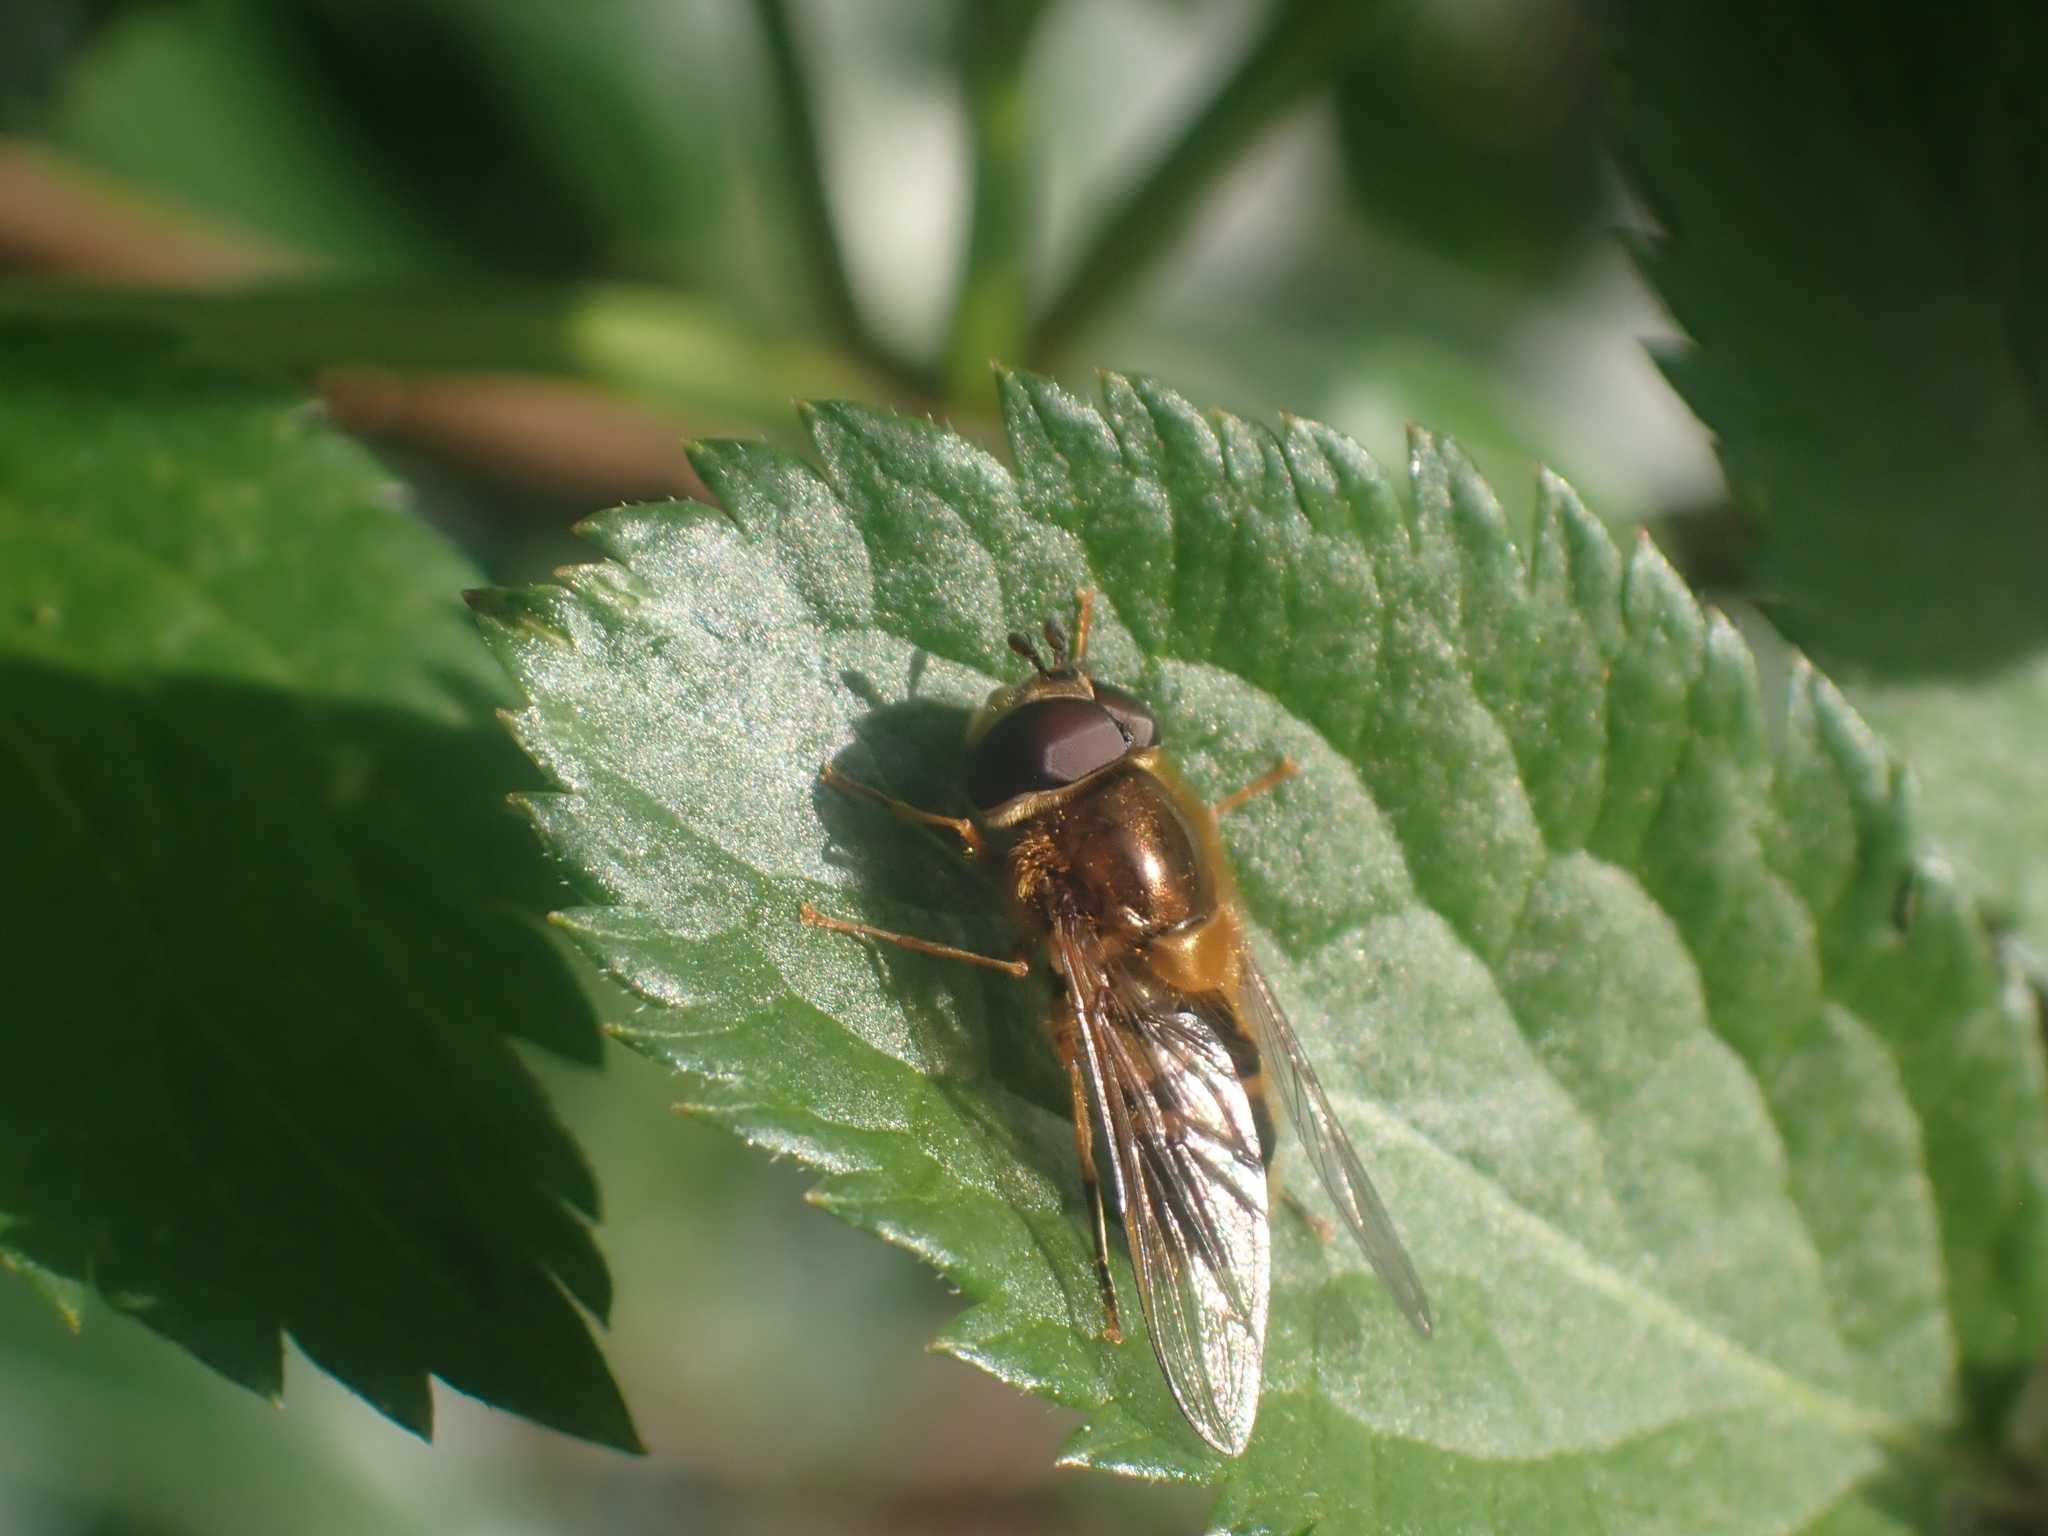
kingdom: Animalia
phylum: Arthropoda
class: Insecta
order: Diptera
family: Syrphidae
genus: Epistrophe
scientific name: Epistrophe eligans
